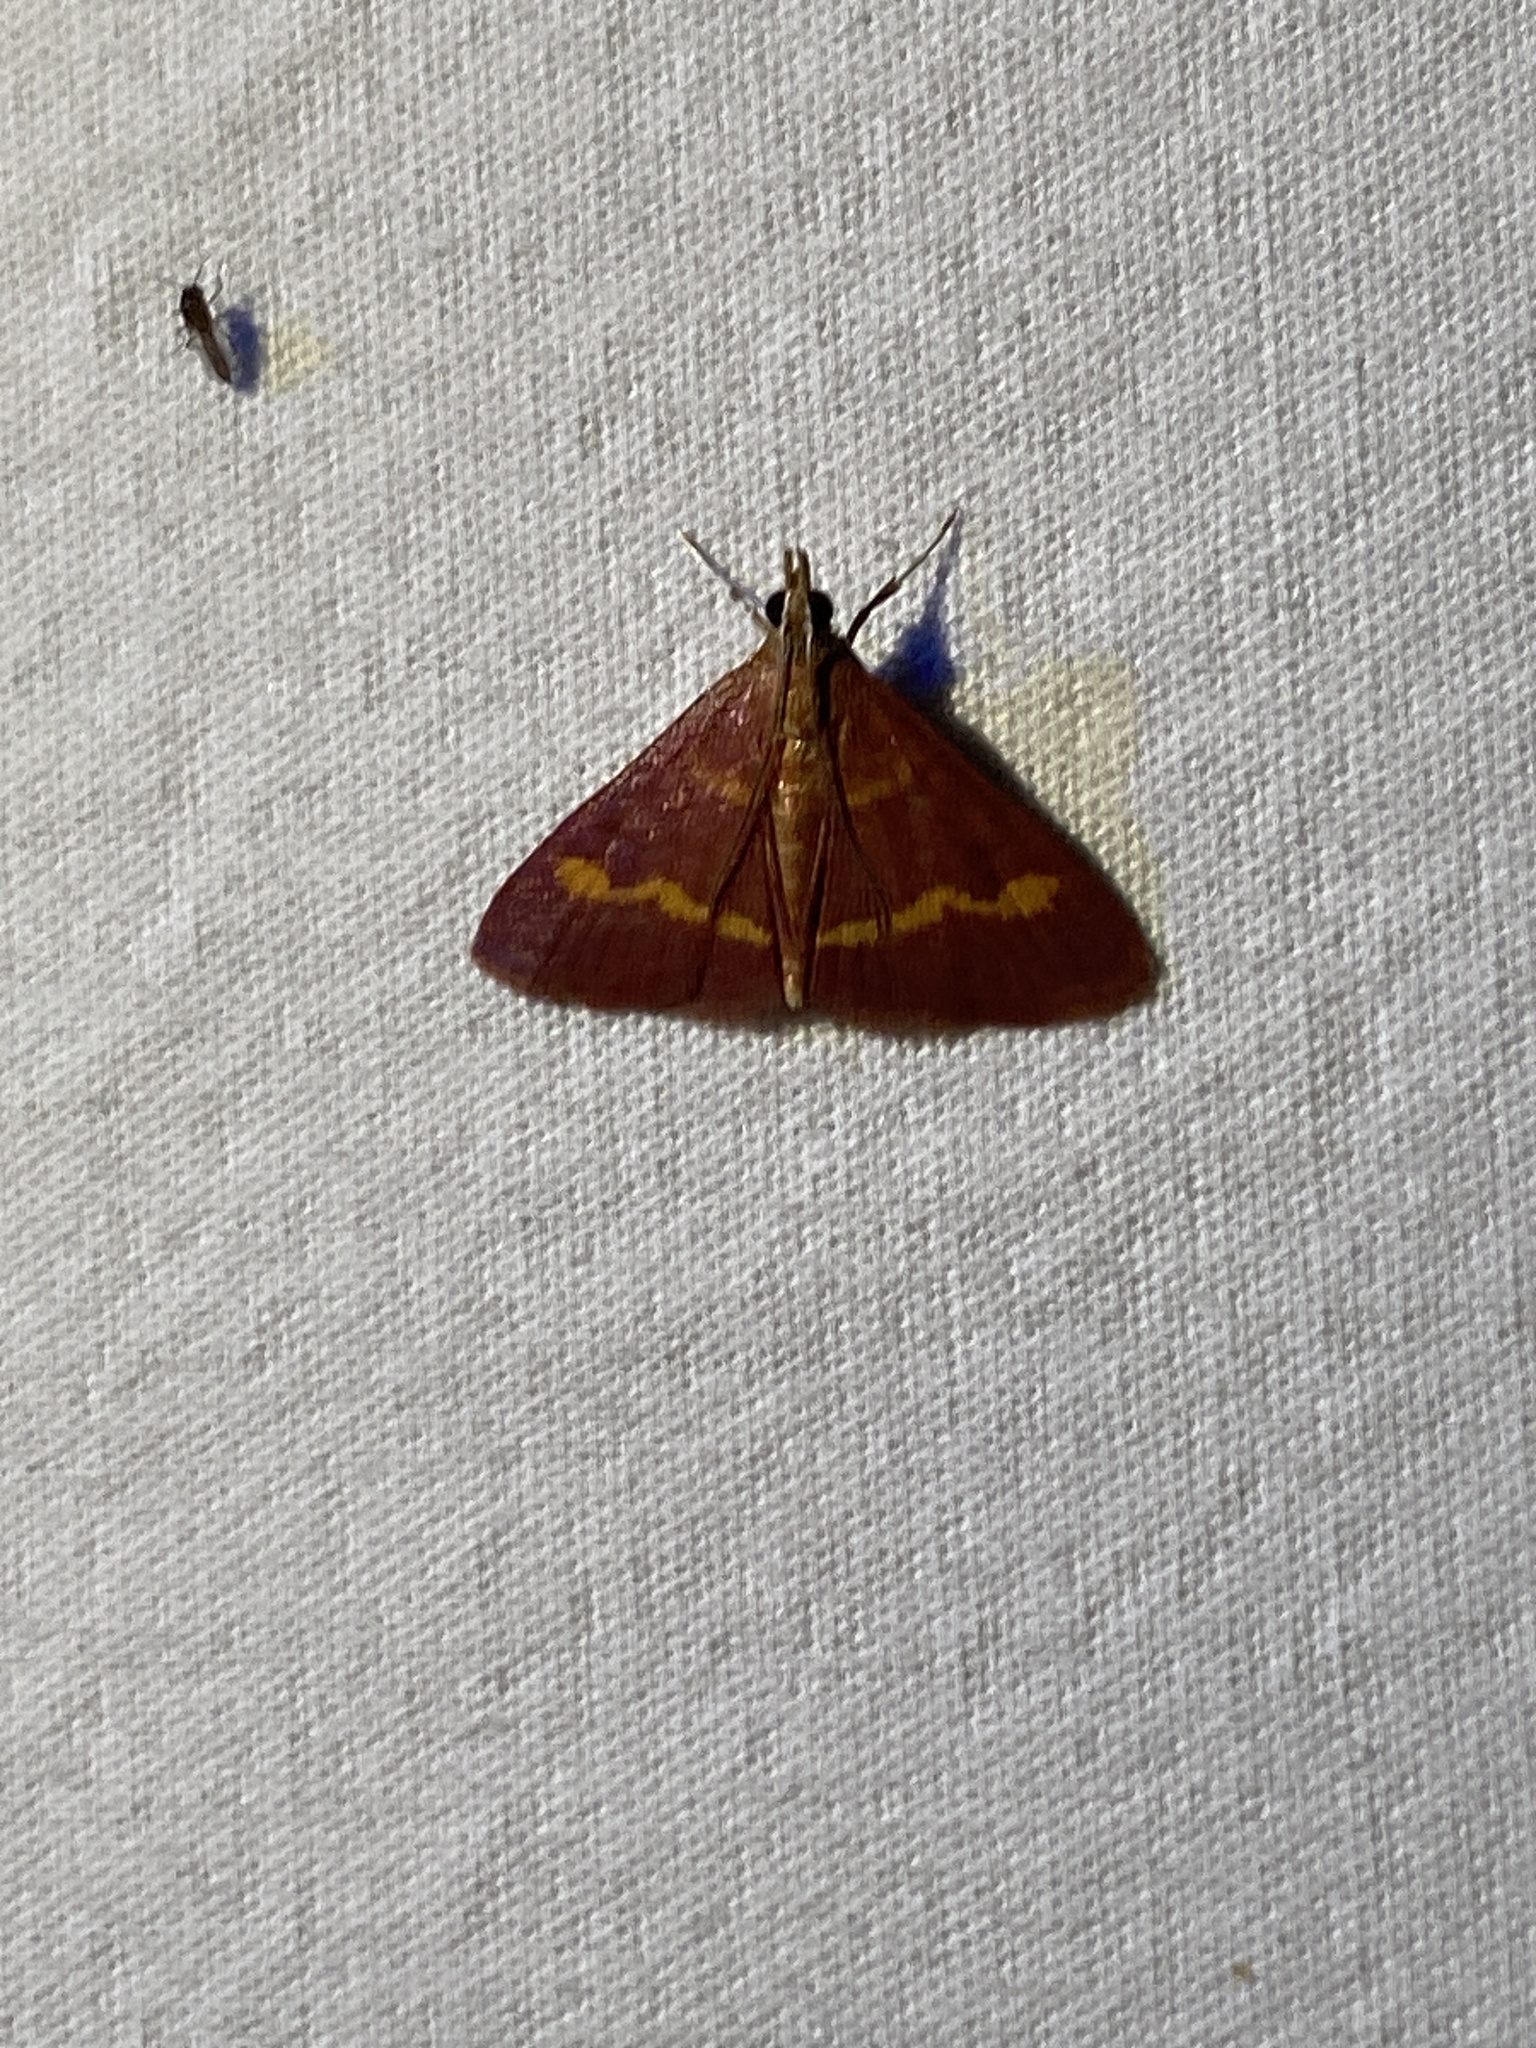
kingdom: Animalia
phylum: Arthropoda
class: Insecta
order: Lepidoptera
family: Crambidae
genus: Pyrausta
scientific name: Pyrausta pseuderosnealis
